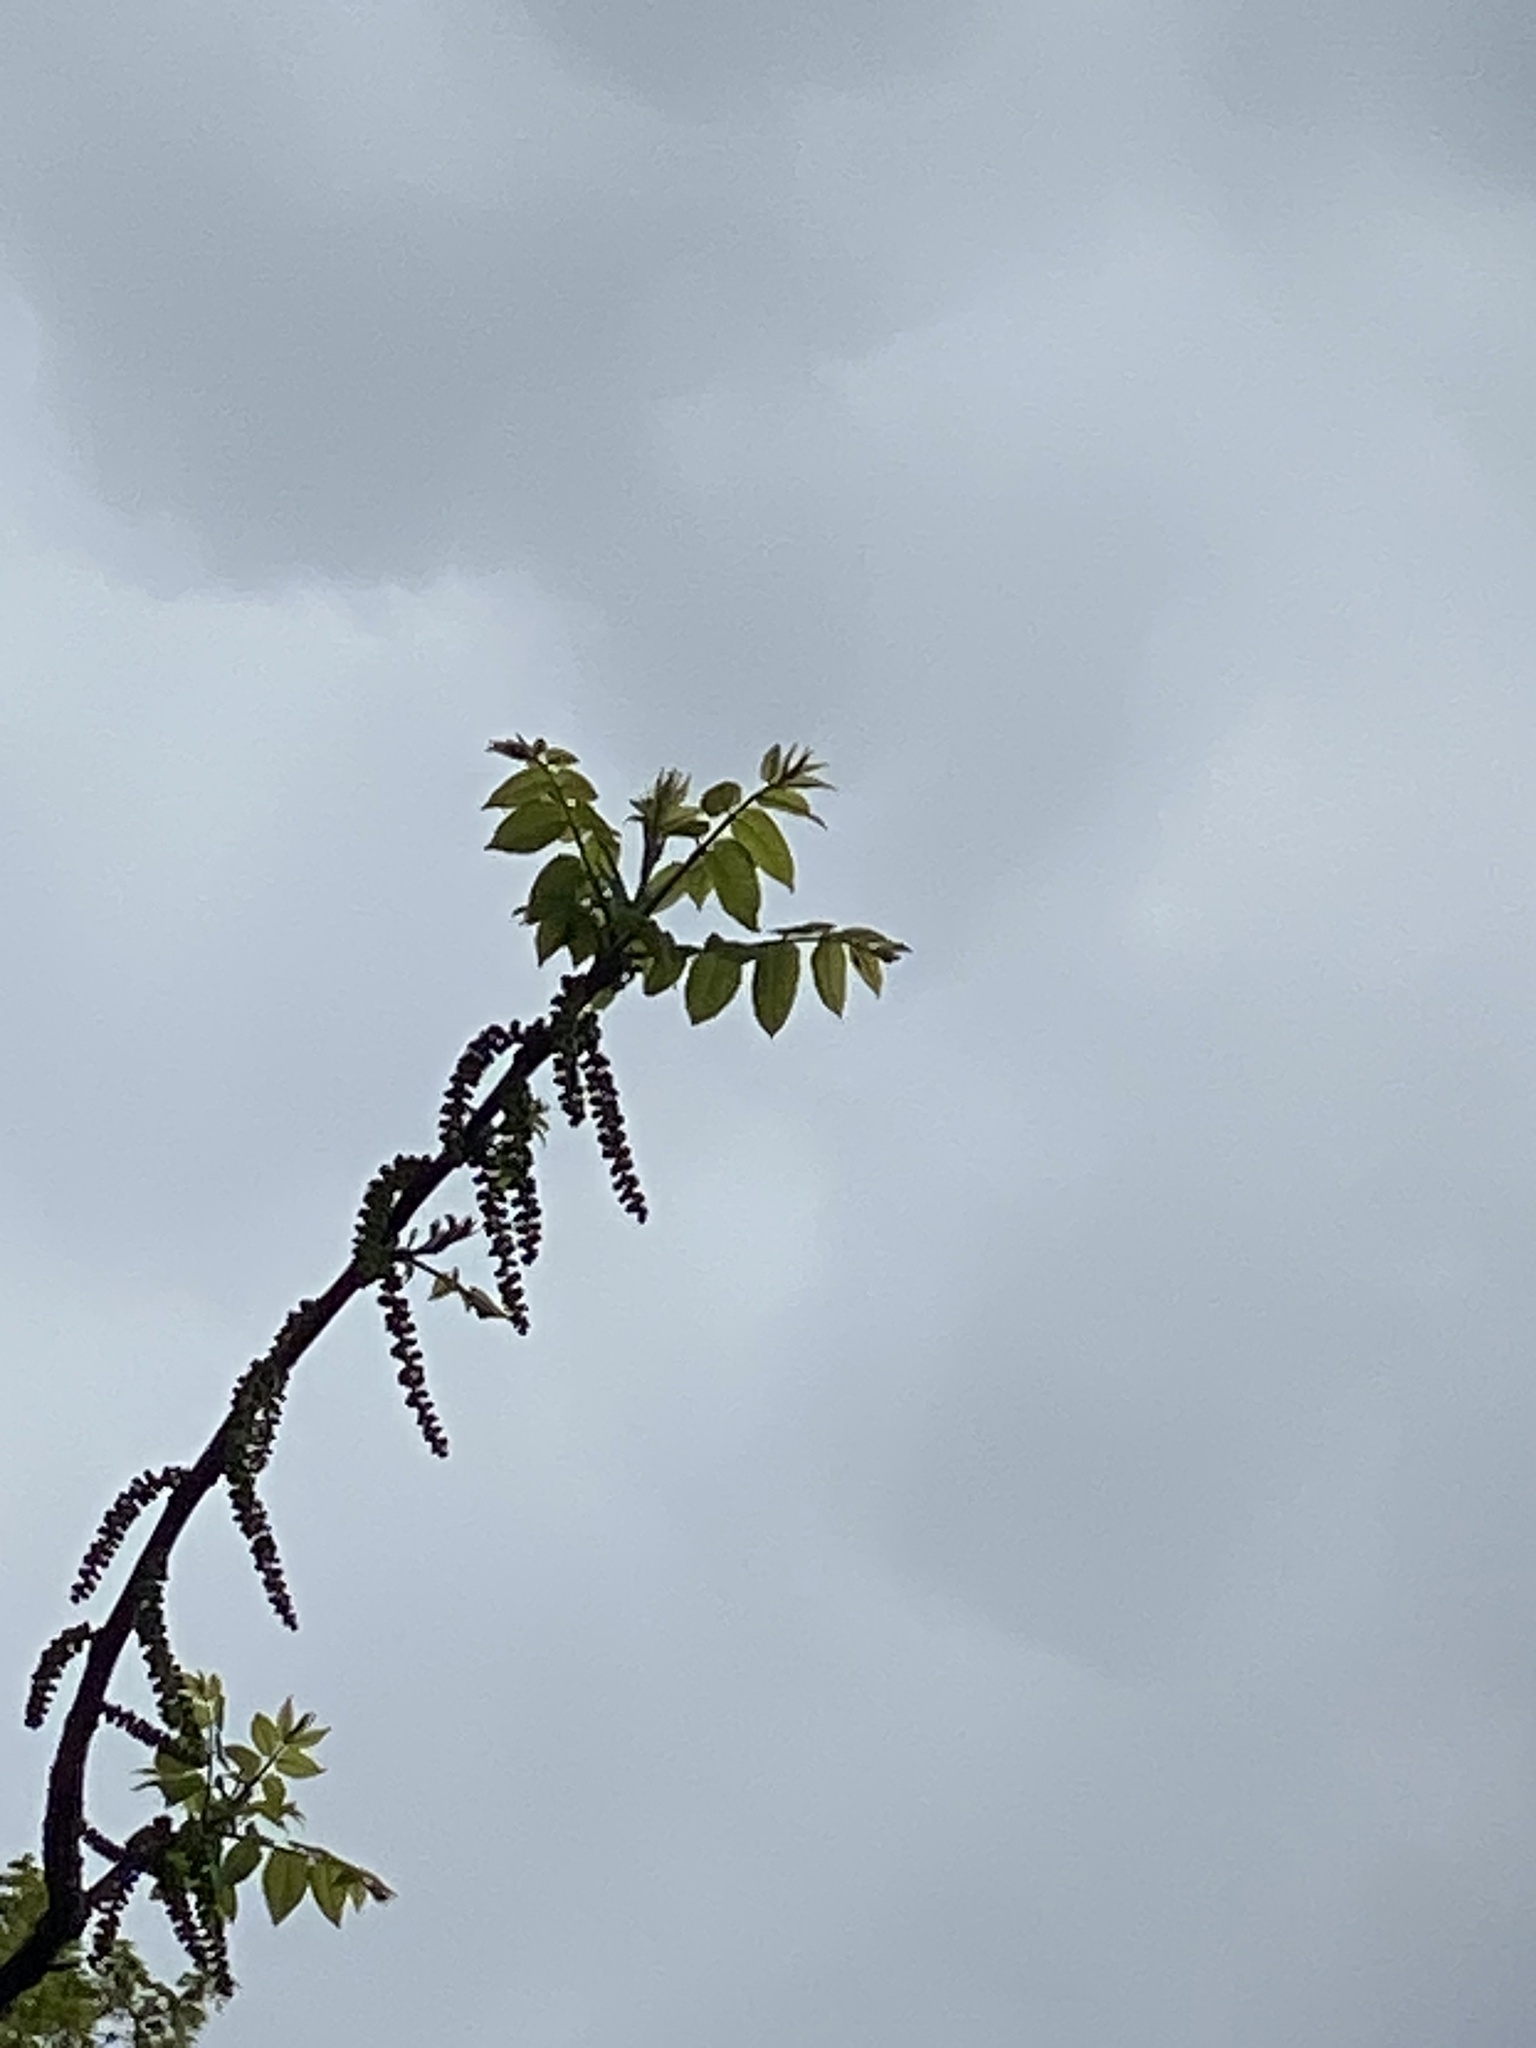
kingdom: Plantae
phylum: Tracheophyta
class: Magnoliopsida
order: Fagales
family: Juglandaceae
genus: Juglans
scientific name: Juglans nigra
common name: Black walnut
